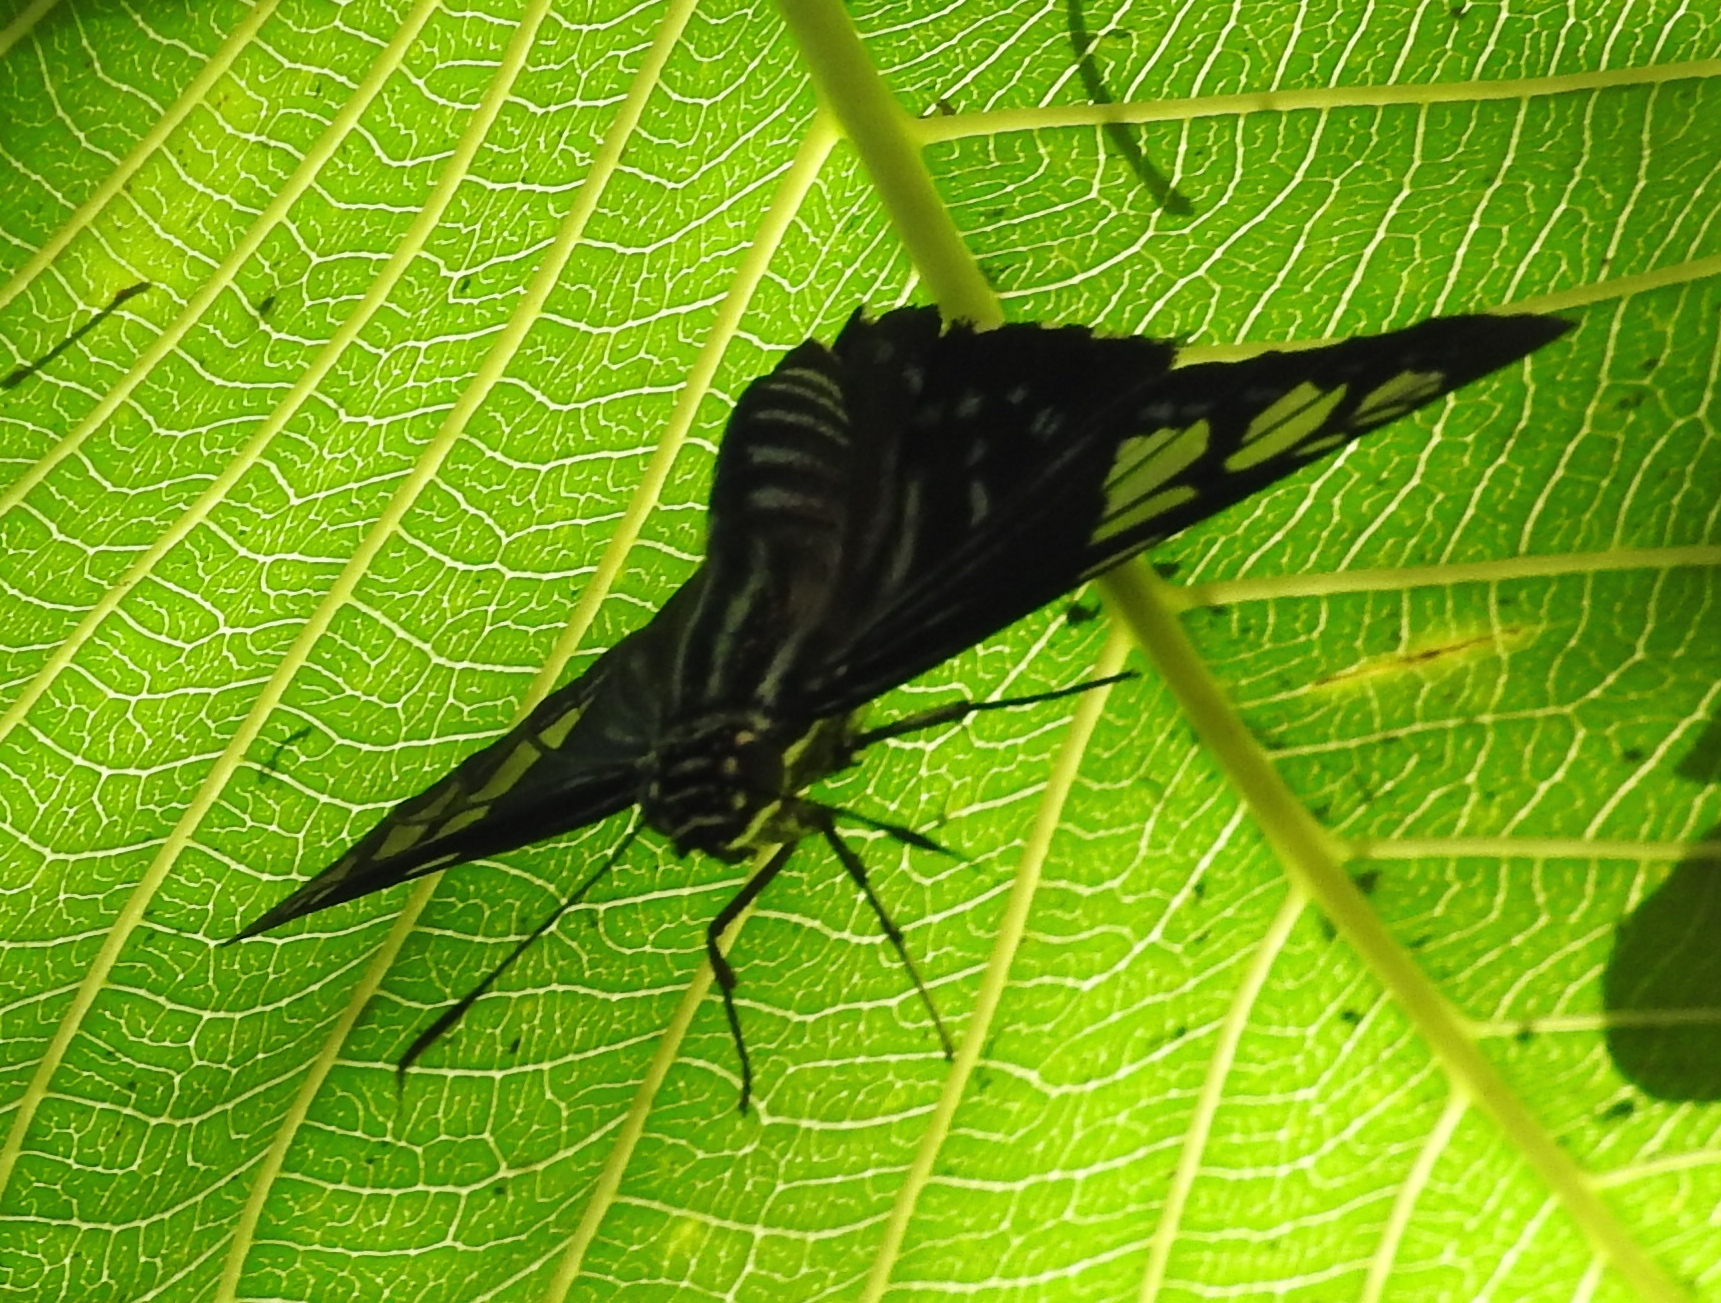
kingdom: Animalia
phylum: Arthropoda
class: Insecta
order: Lepidoptera
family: Hesperiidae
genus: Phocides
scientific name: Phocides pigmalion
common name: Mangrove skipper
